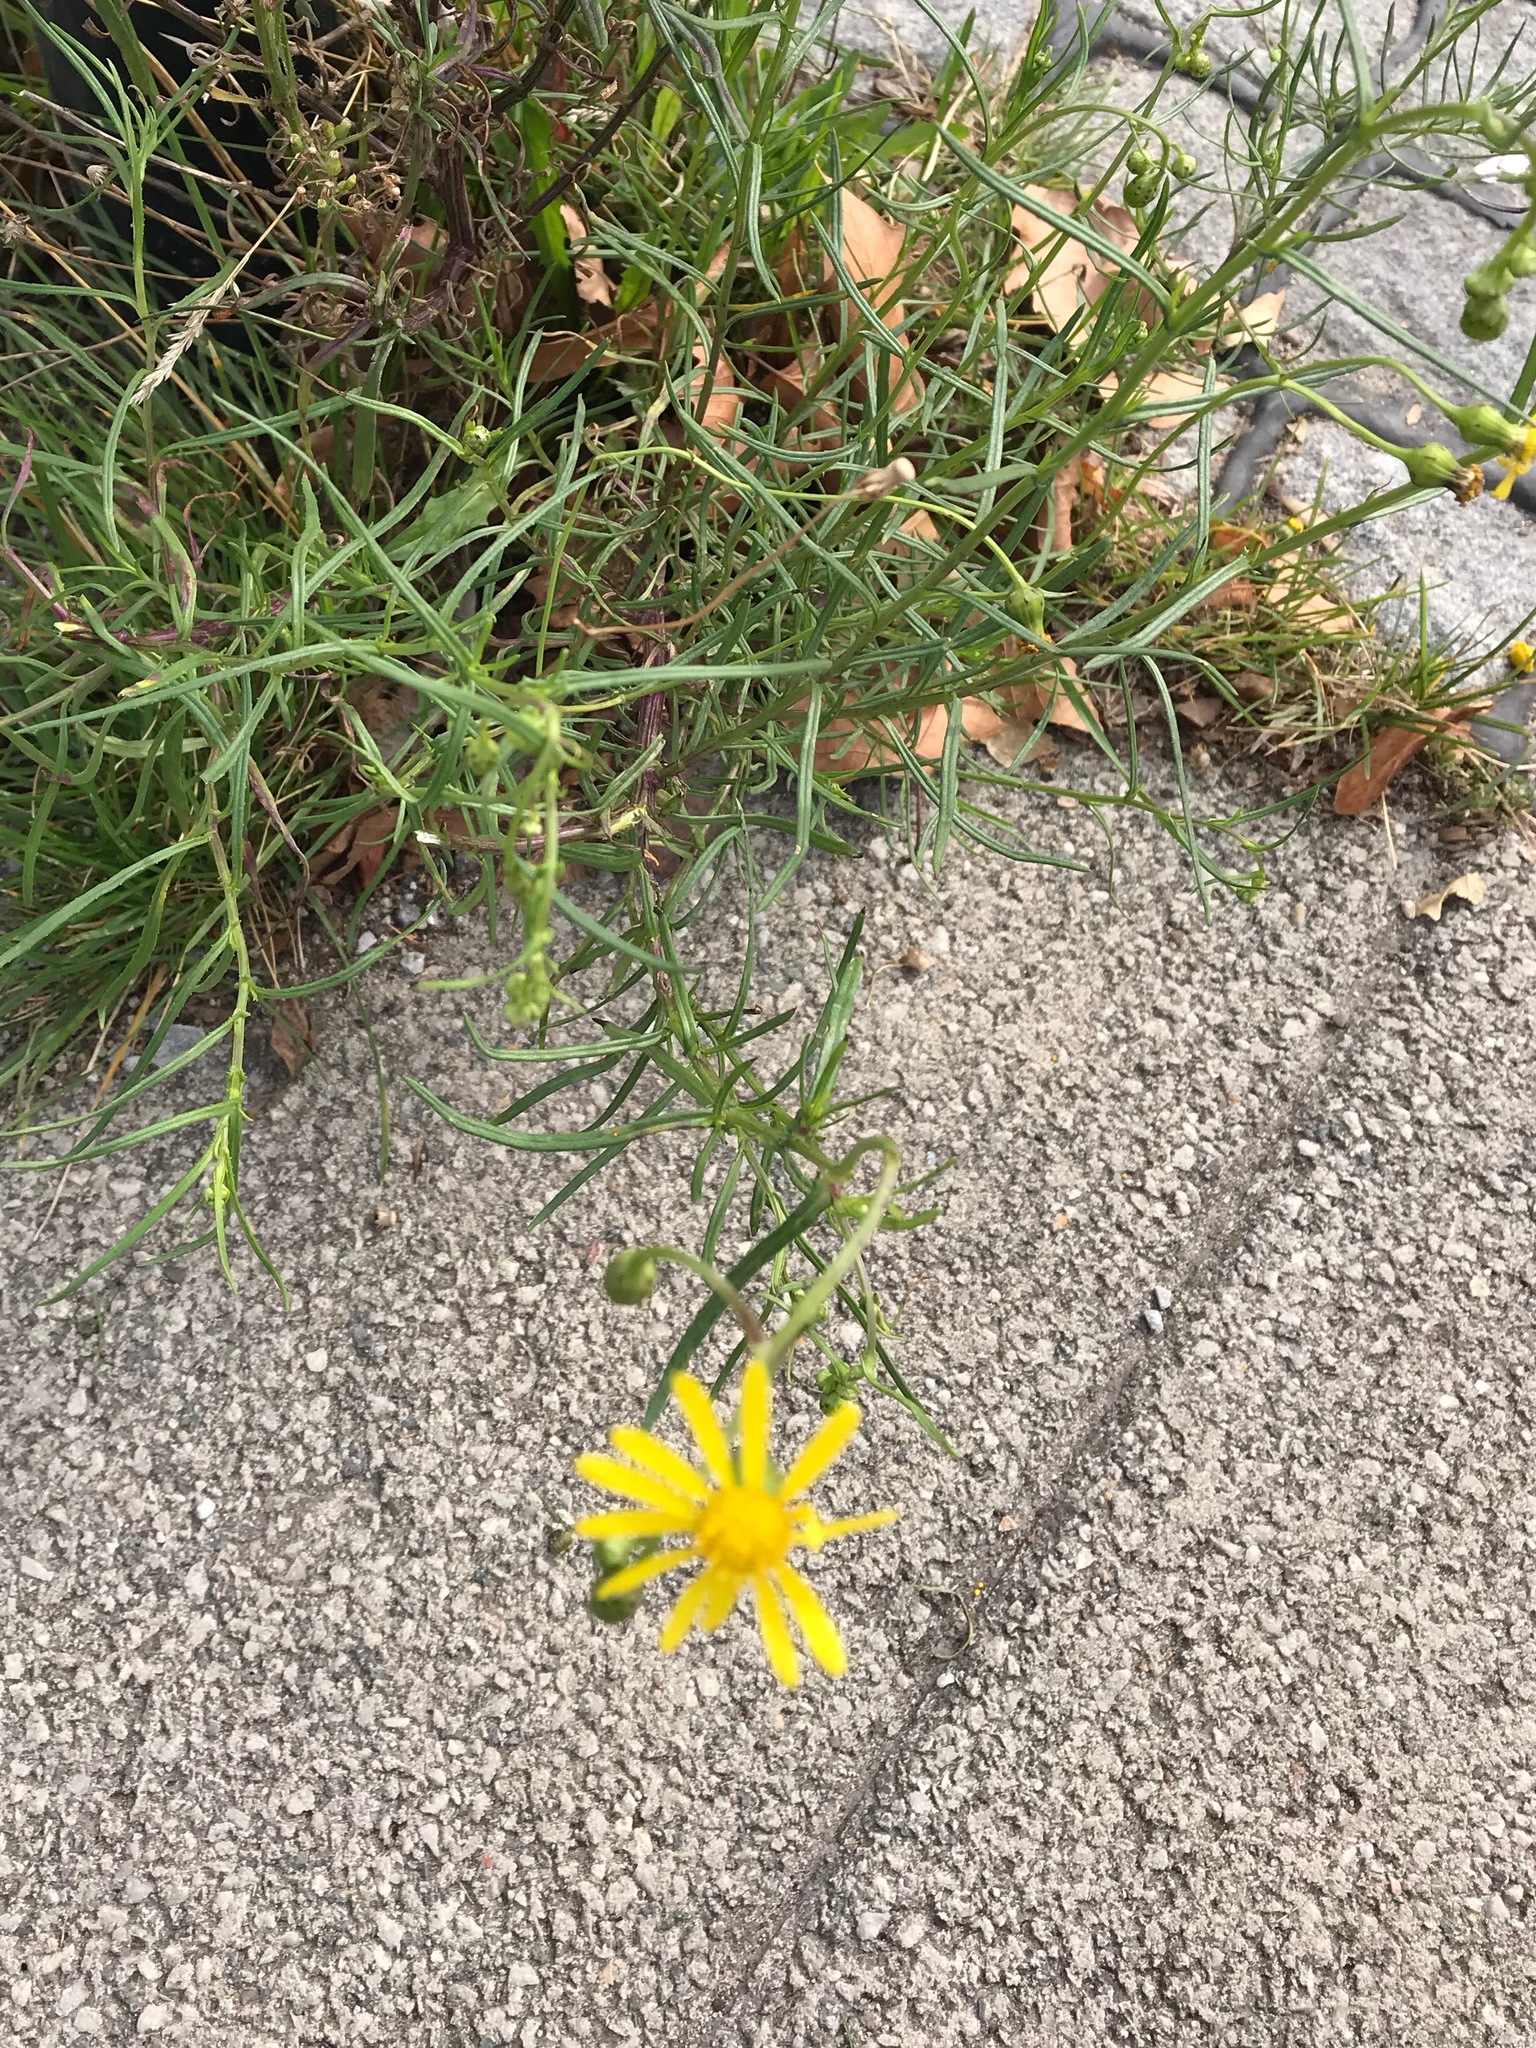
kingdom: Plantae
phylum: Tracheophyta
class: Magnoliopsida
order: Asterales
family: Asteraceae
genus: Senecio
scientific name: Senecio inaequidens
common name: Narrow-leaved ragwort
